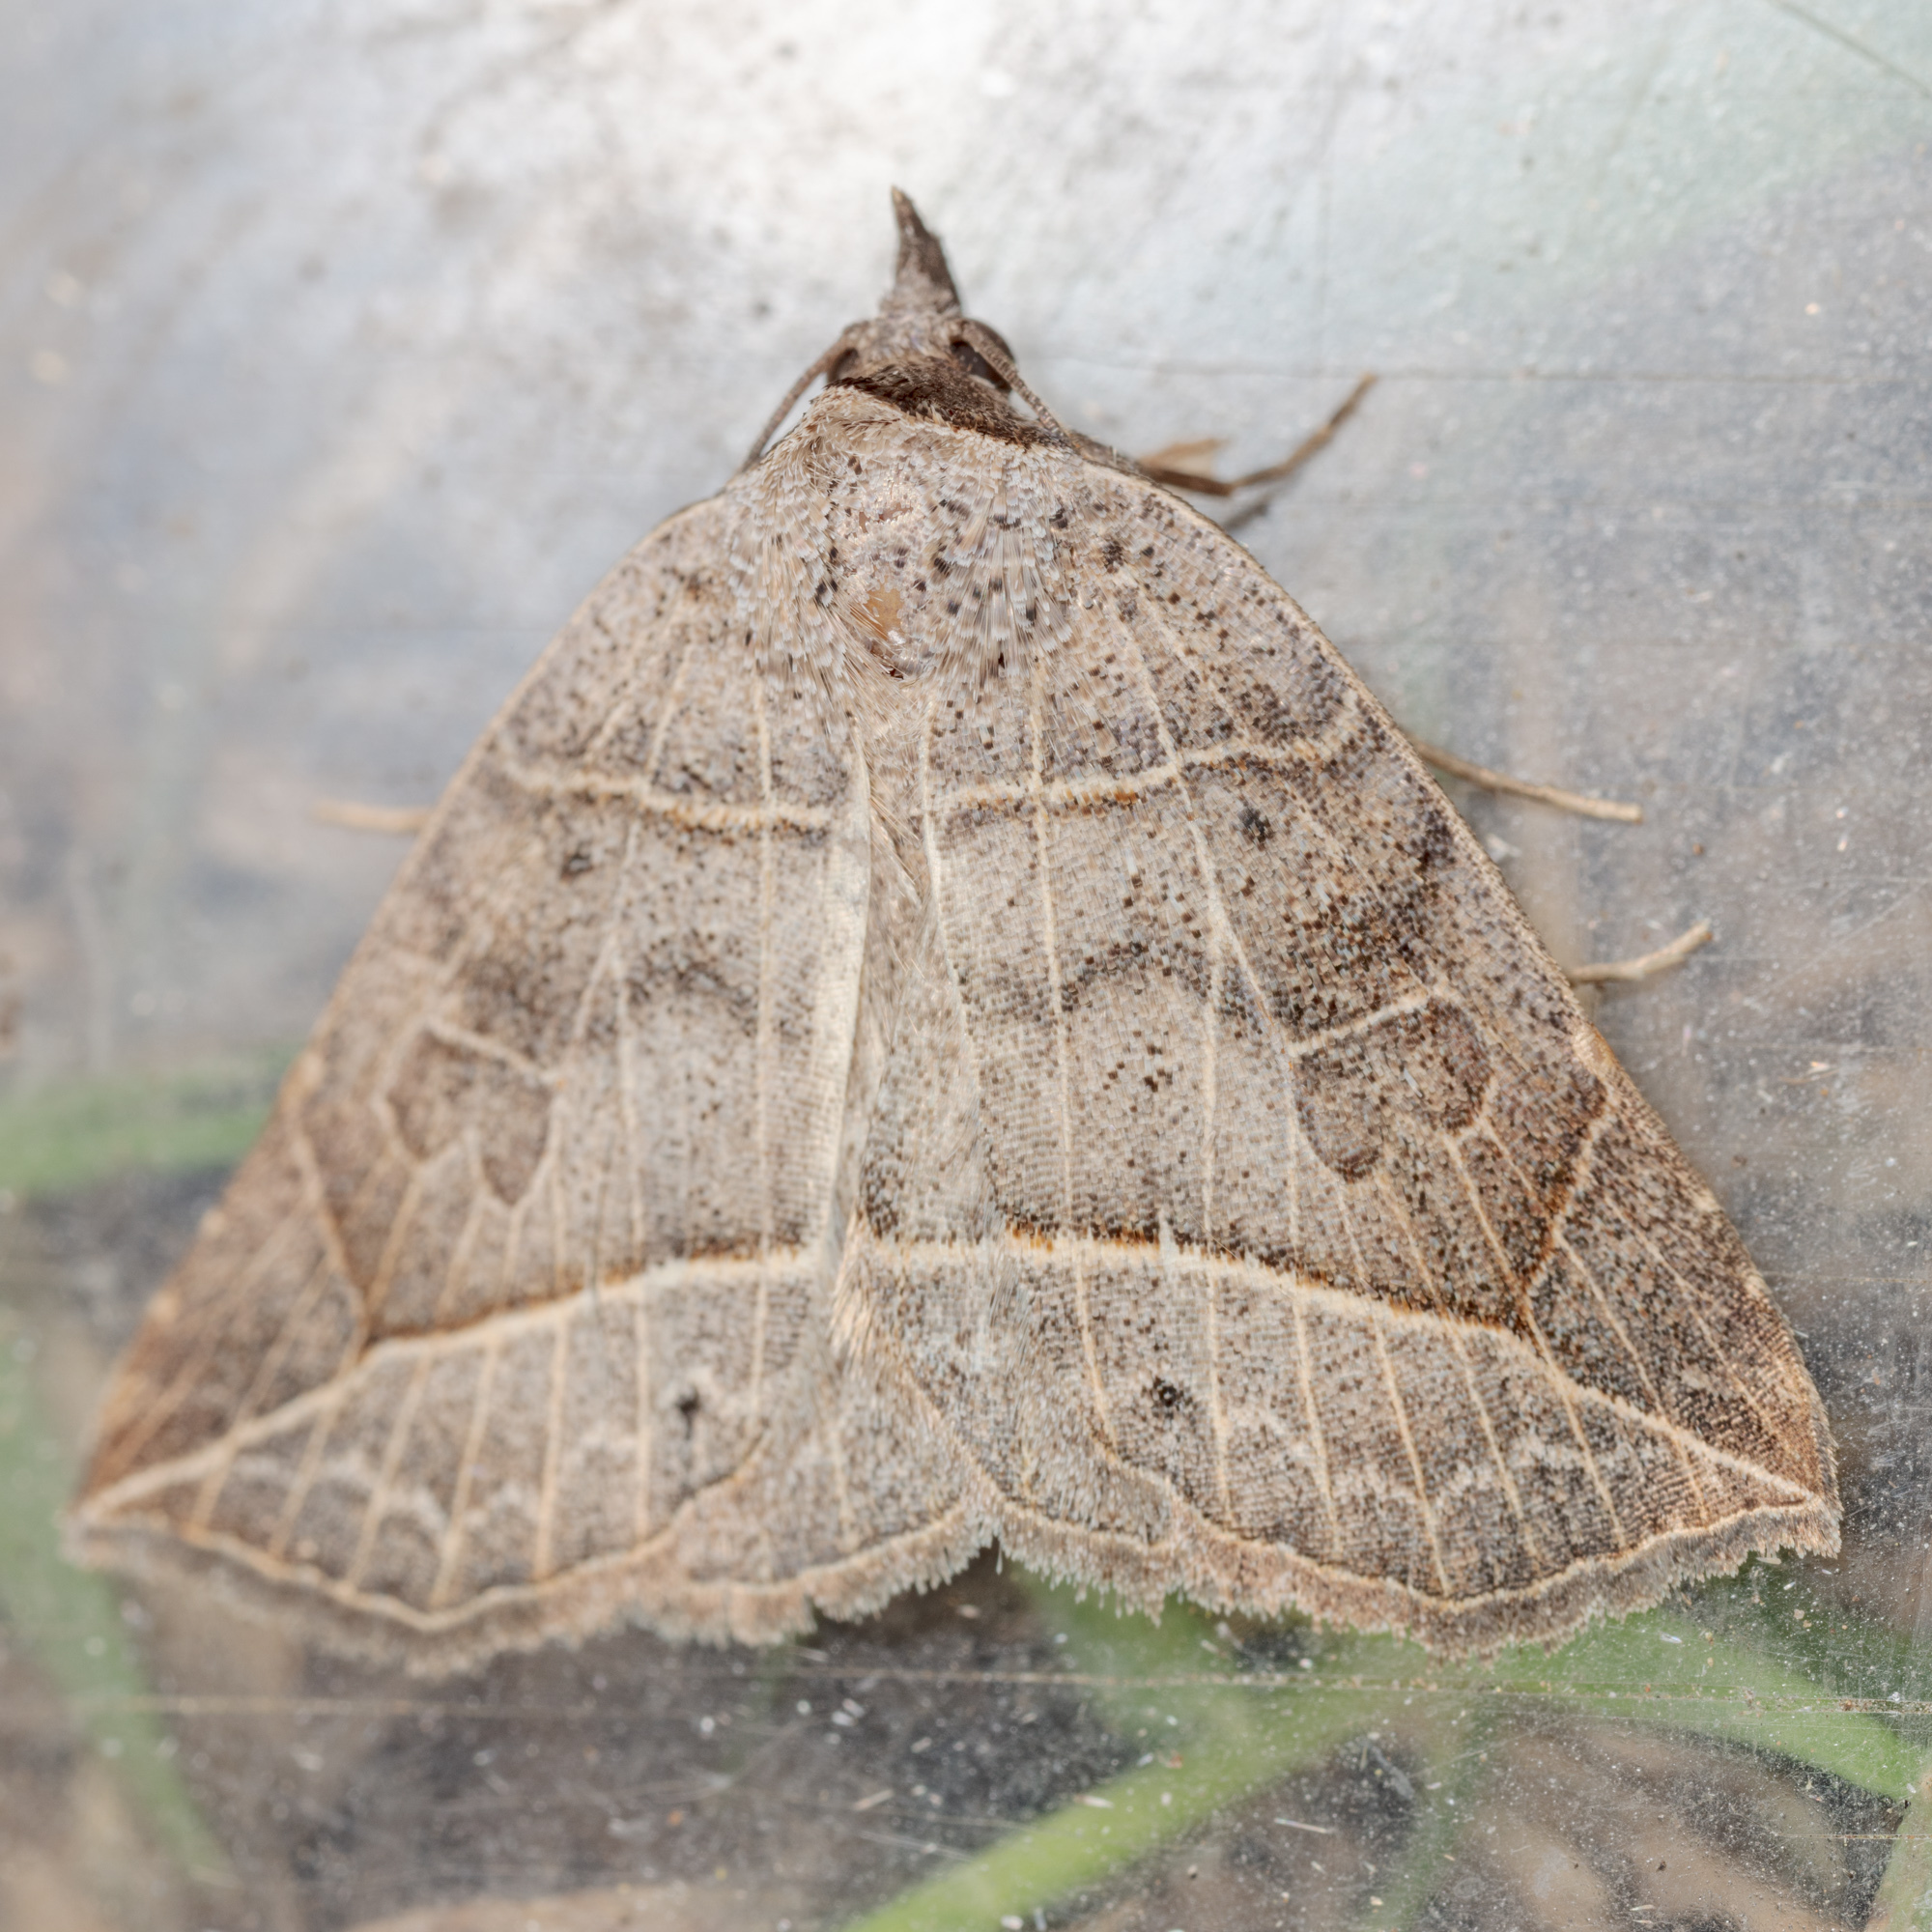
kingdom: Animalia
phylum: Arthropoda
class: Insecta
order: Lepidoptera
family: Erebidae
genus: Isogona
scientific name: Isogona tenuis
